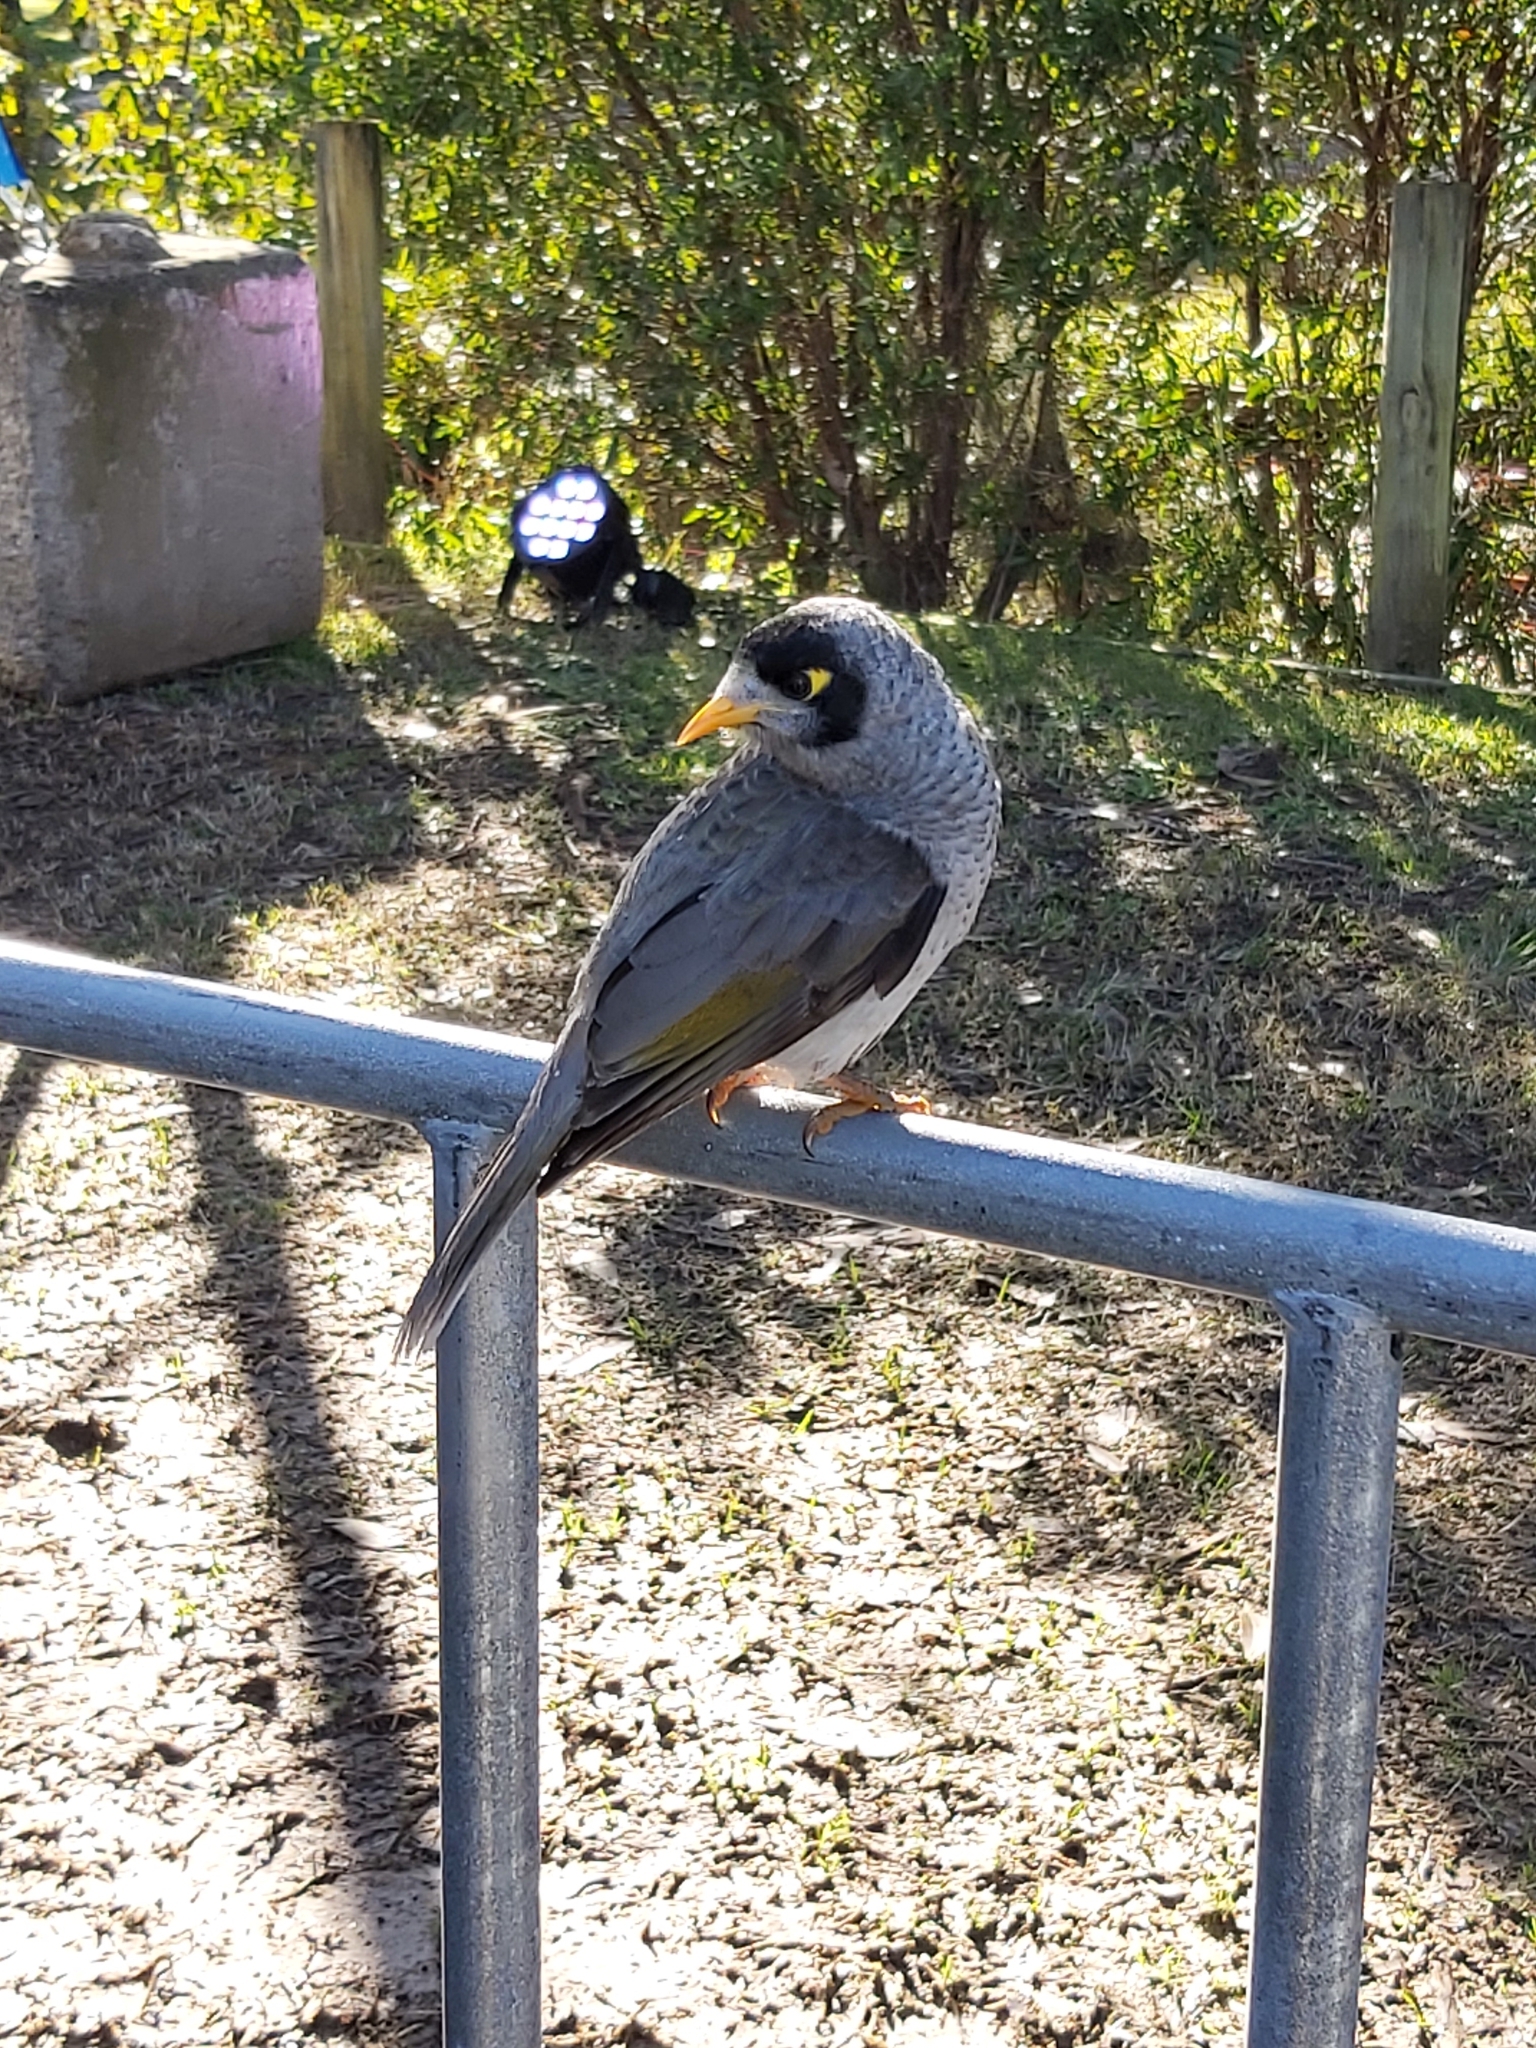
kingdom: Animalia
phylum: Chordata
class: Aves
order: Passeriformes
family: Meliphagidae
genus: Manorina
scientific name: Manorina melanocephala
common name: Noisy miner
